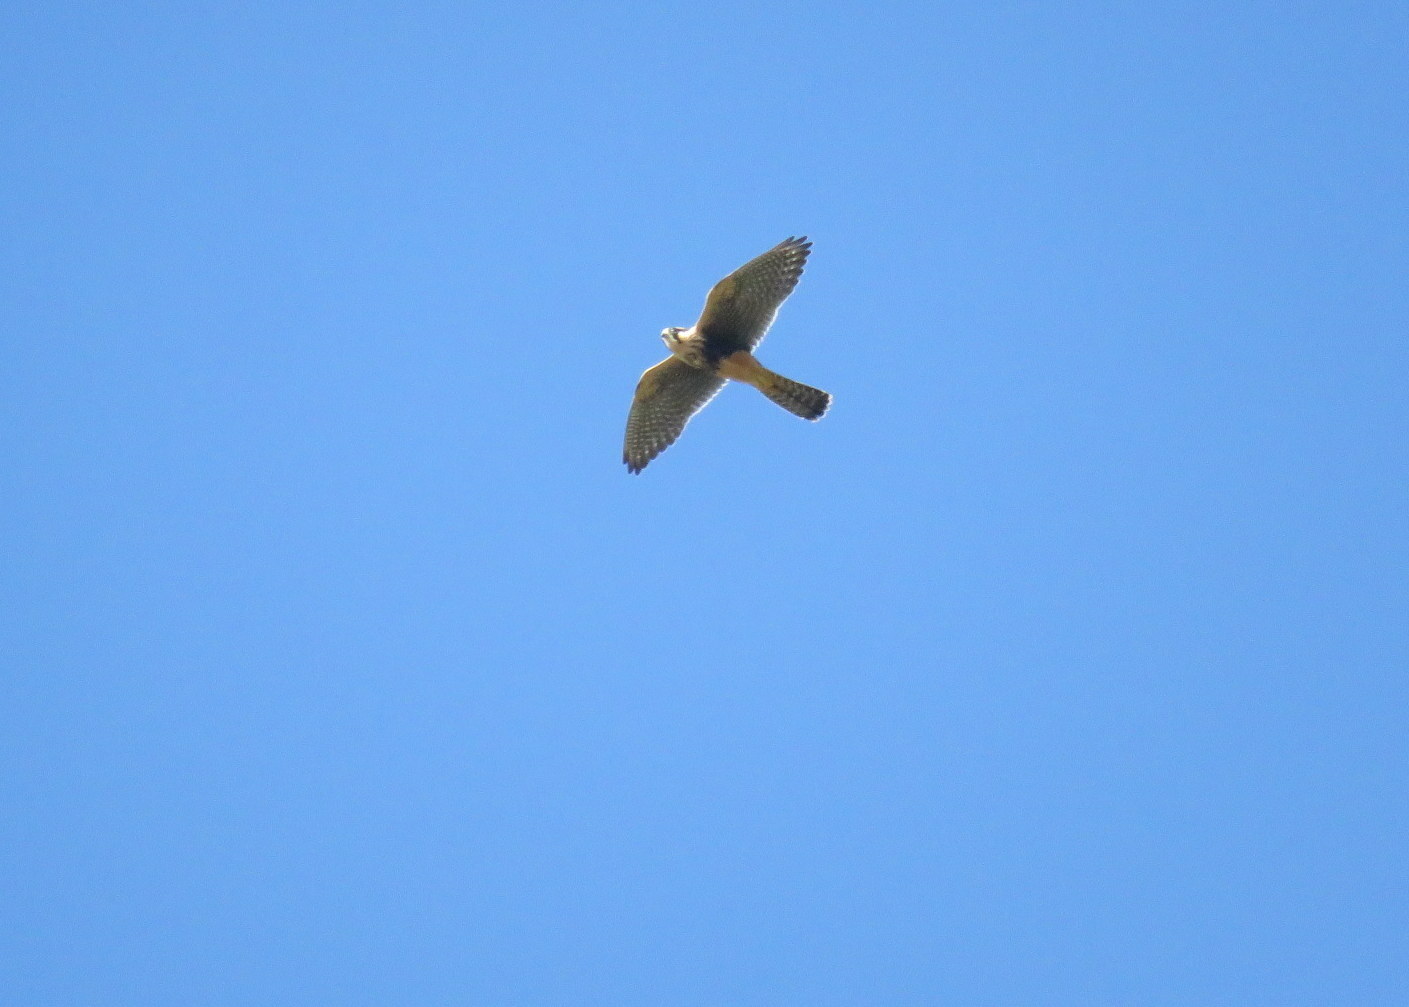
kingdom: Animalia
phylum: Chordata
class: Aves
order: Falconiformes
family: Falconidae
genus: Falco
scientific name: Falco femoralis
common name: Aplomado falcon
